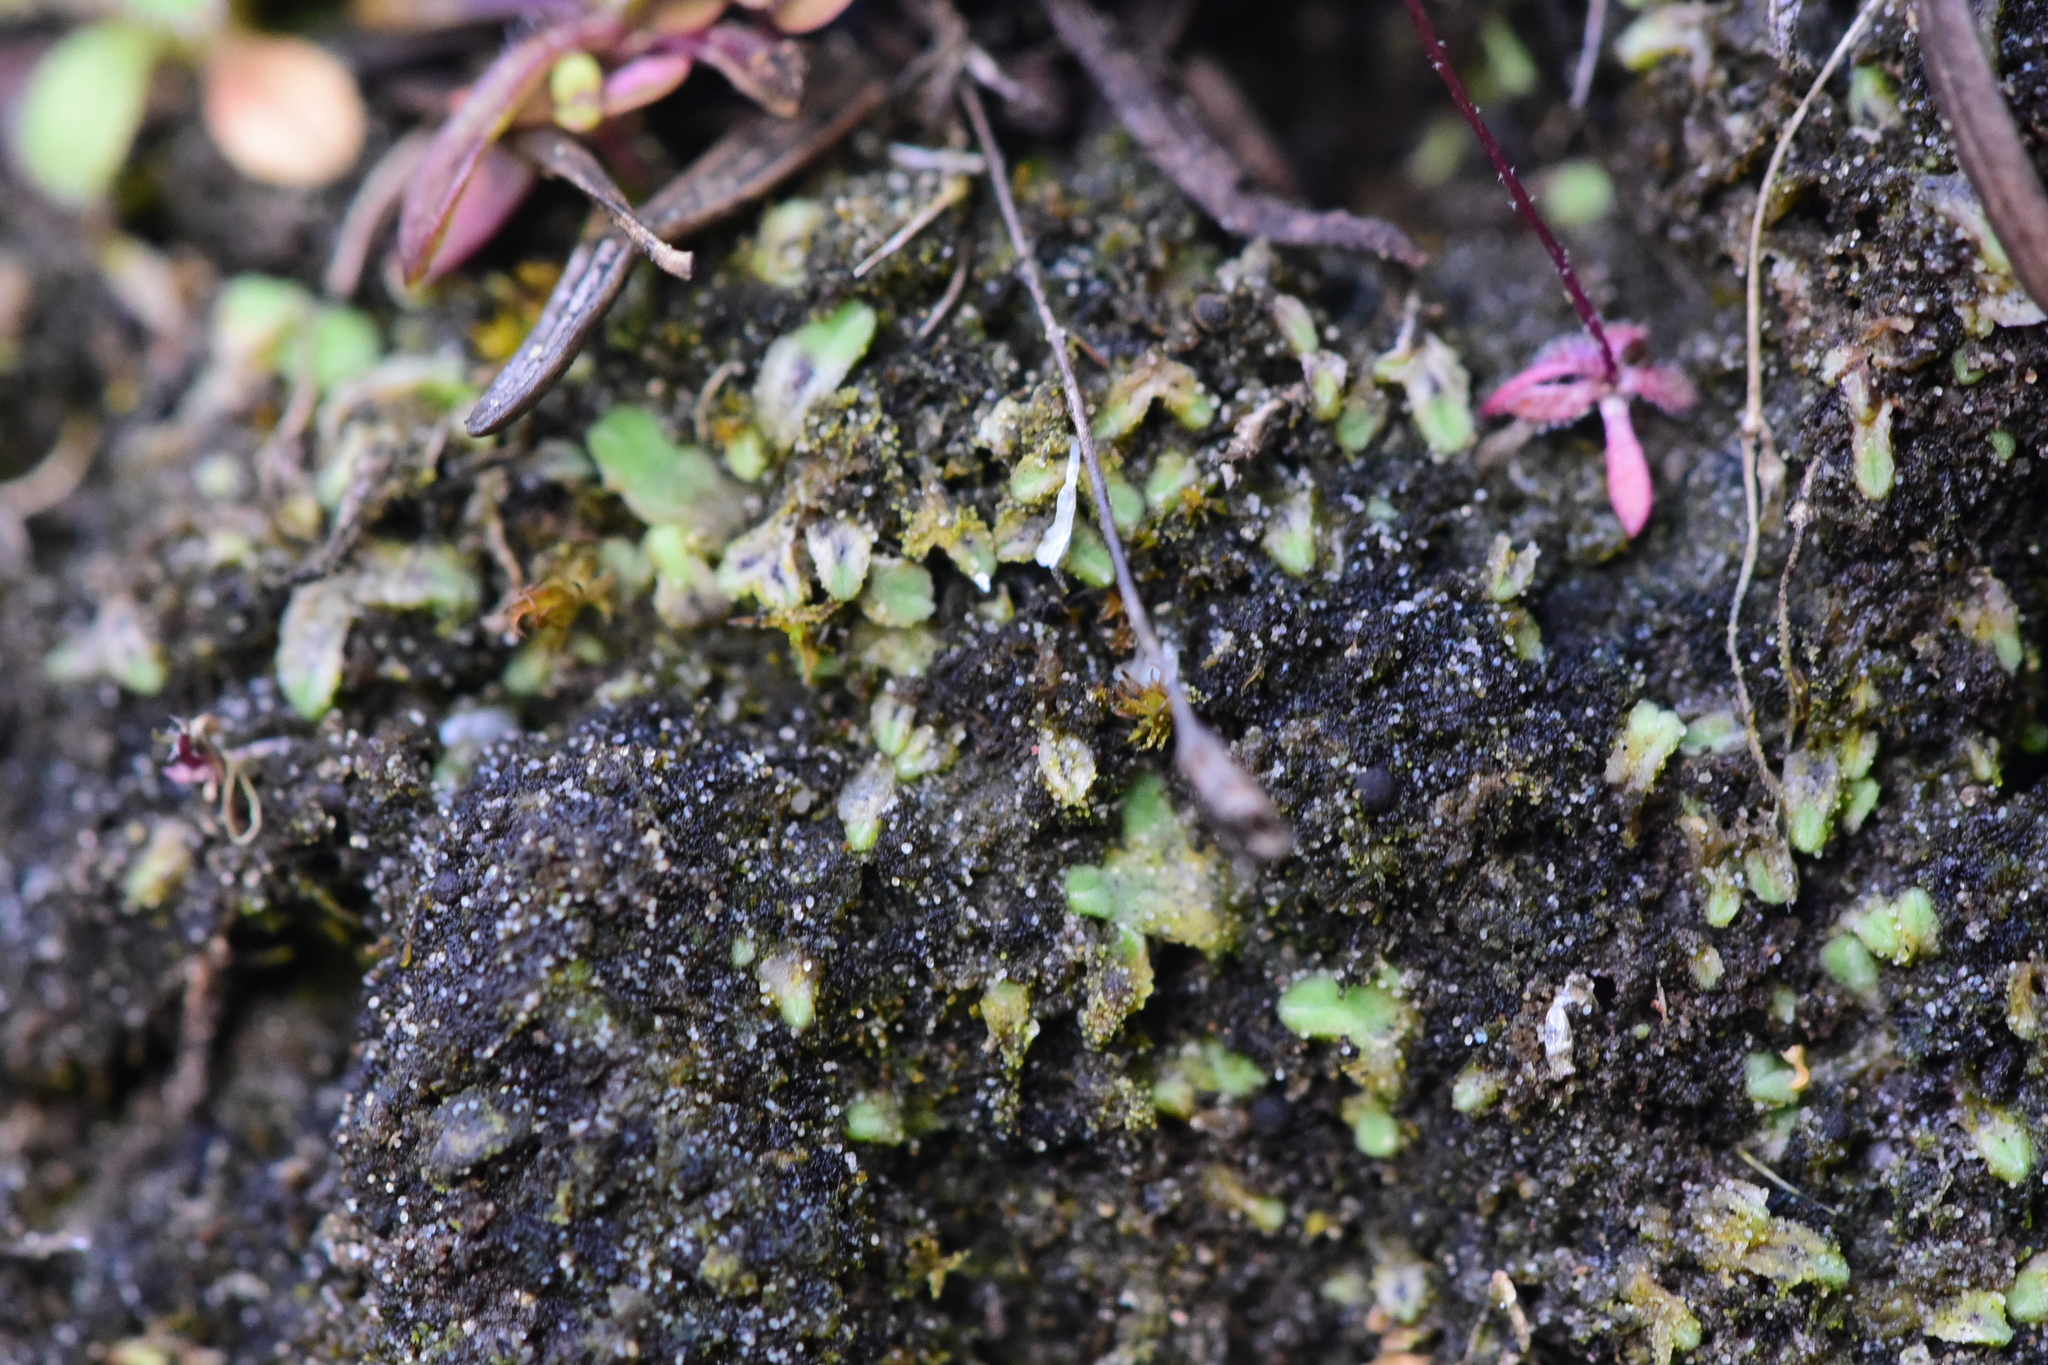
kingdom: Plantae
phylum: Marchantiophyta
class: Marchantiopsida
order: Marchantiales
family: Ricciaceae
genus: Riccia
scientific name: Riccia sorocarpa
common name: Common crystalwort
